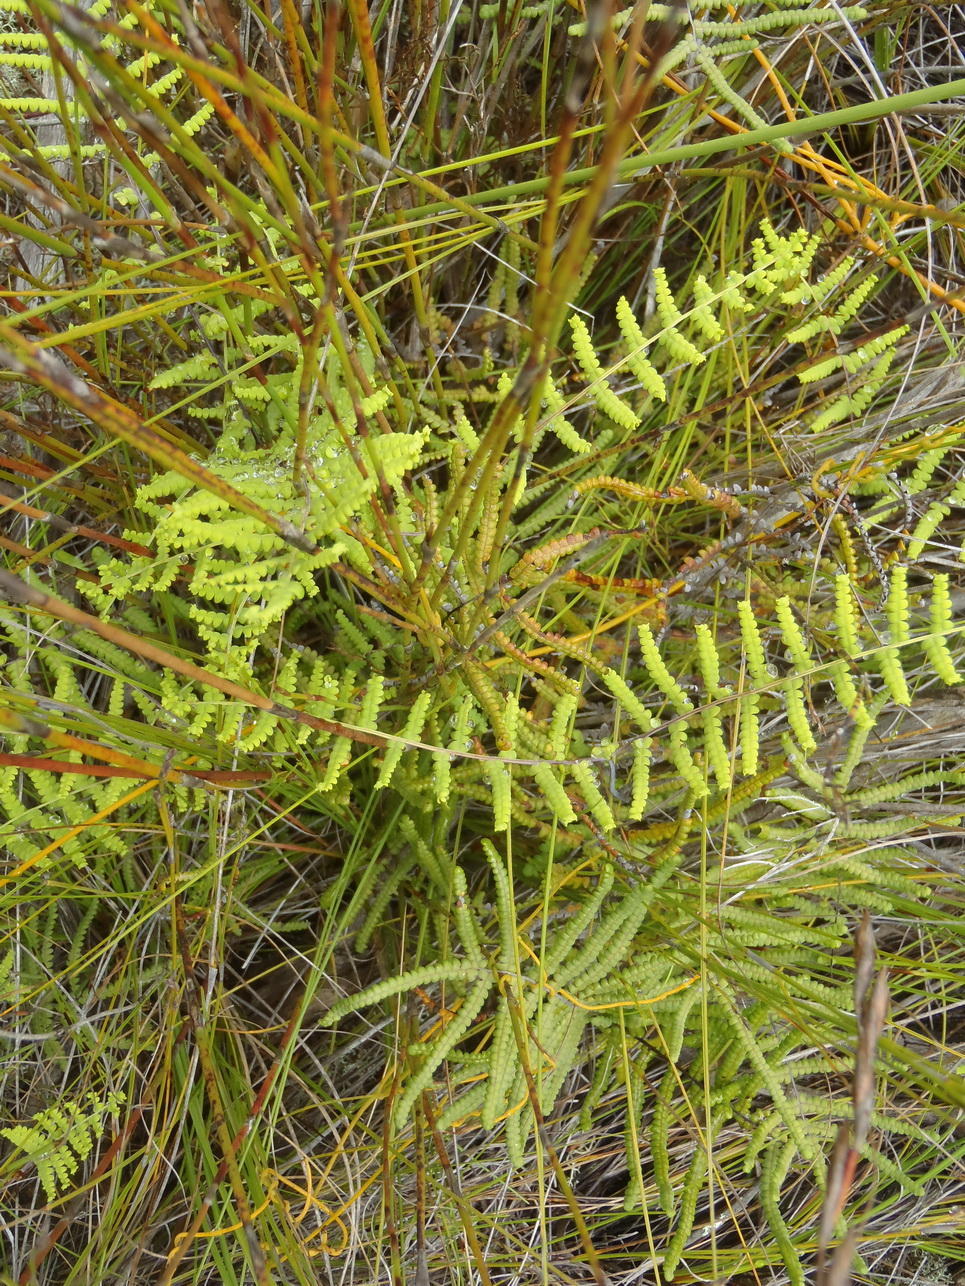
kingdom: Plantae
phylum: Tracheophyta
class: Polypodiopsida
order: Gleicheniales
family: Gleicheniaceae
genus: Gleichenia
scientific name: Gleichenia polypodioides
